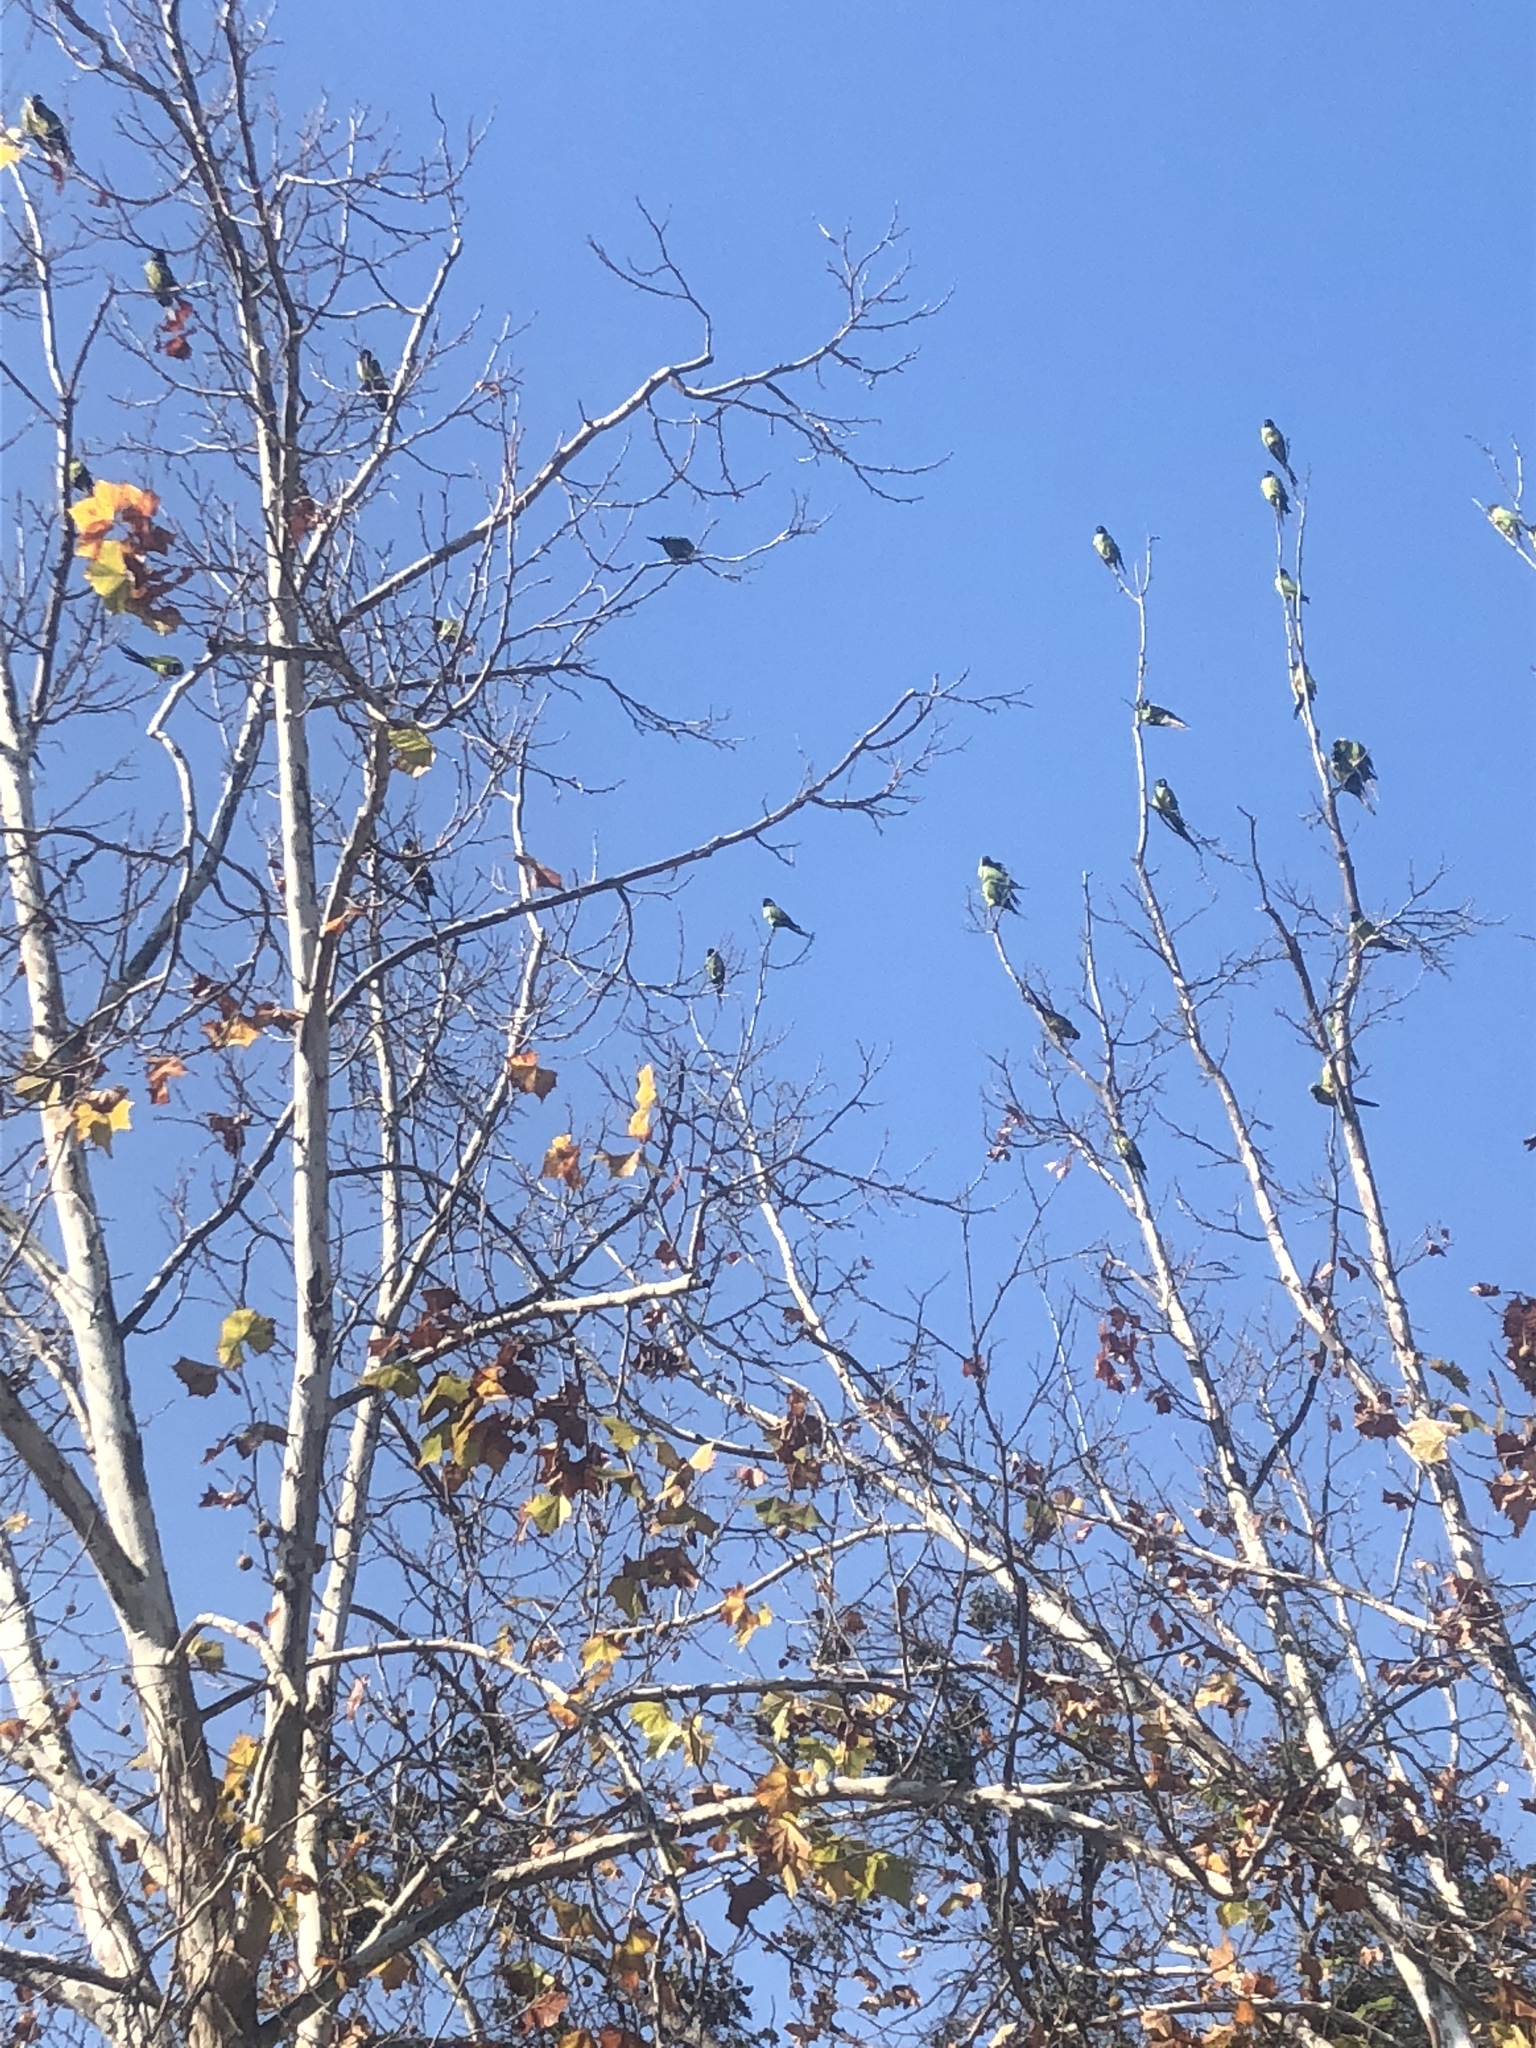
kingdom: Animalia
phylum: Chordata
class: Aves
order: Psittaciformes
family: Psittacidae
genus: Nandayus
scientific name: Nandayus nenday
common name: Nanday parakeet
